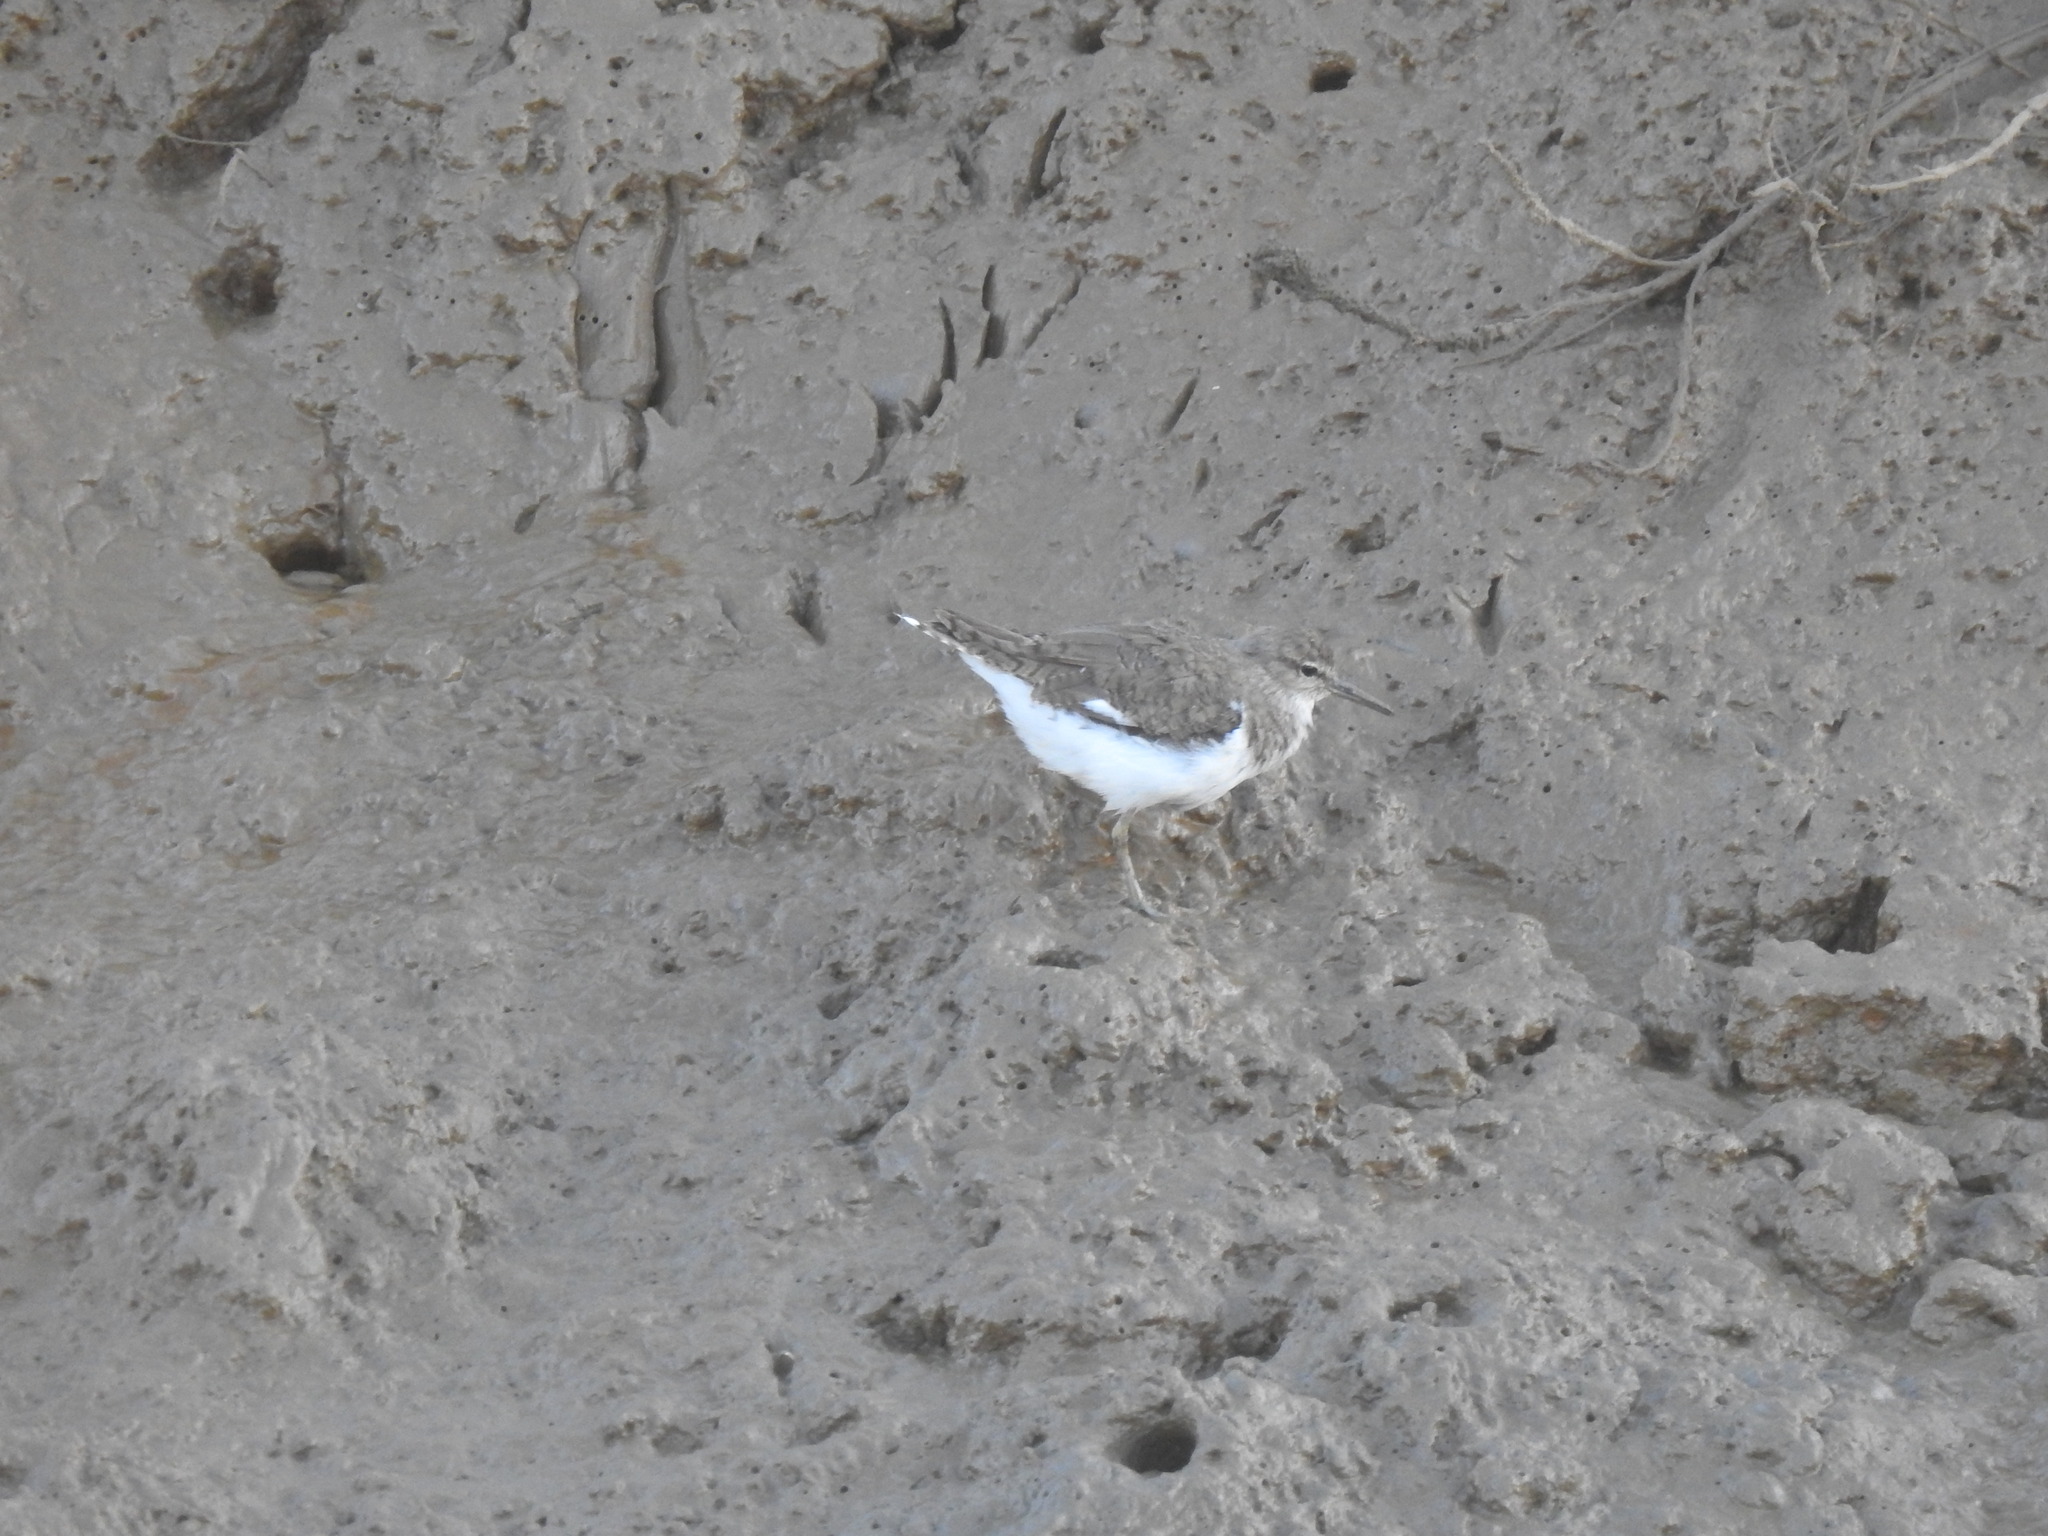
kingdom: Animalia
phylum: Chordata
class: Aves
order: Charadriiformes
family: Scolopacidae
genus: Actitis
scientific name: Actitis hypoleucos
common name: Common sandpiper
